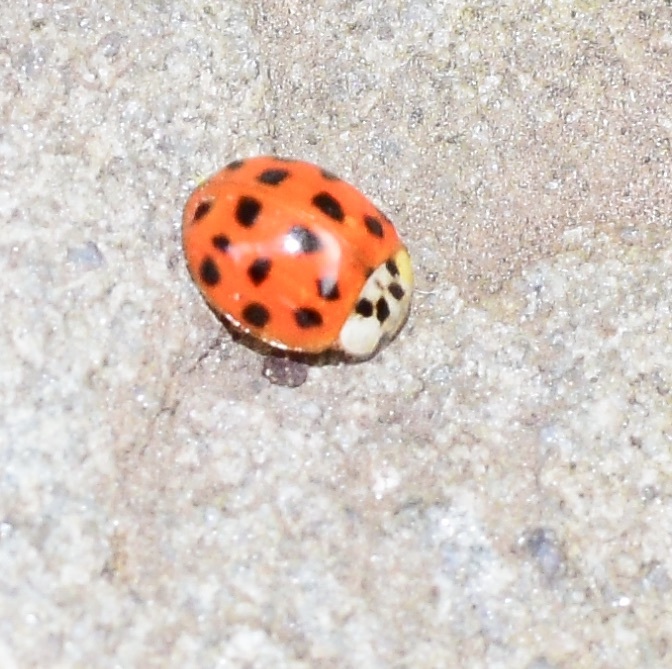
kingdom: Animalia
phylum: Arthropoda
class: Insecta
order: Coleoptera
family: Coccinellidae
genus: Harmonia
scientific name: Harmonia axyridis
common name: Harlequin ladybird
